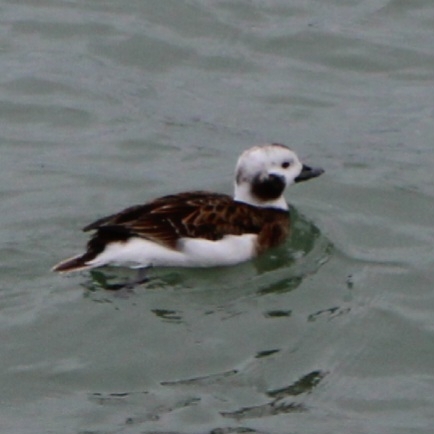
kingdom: Animalia
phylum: Chordata
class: Aves
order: Anseriformes
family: Anatidae
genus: Clangula
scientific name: Clangula hyemalis
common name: Long-tailed duck
